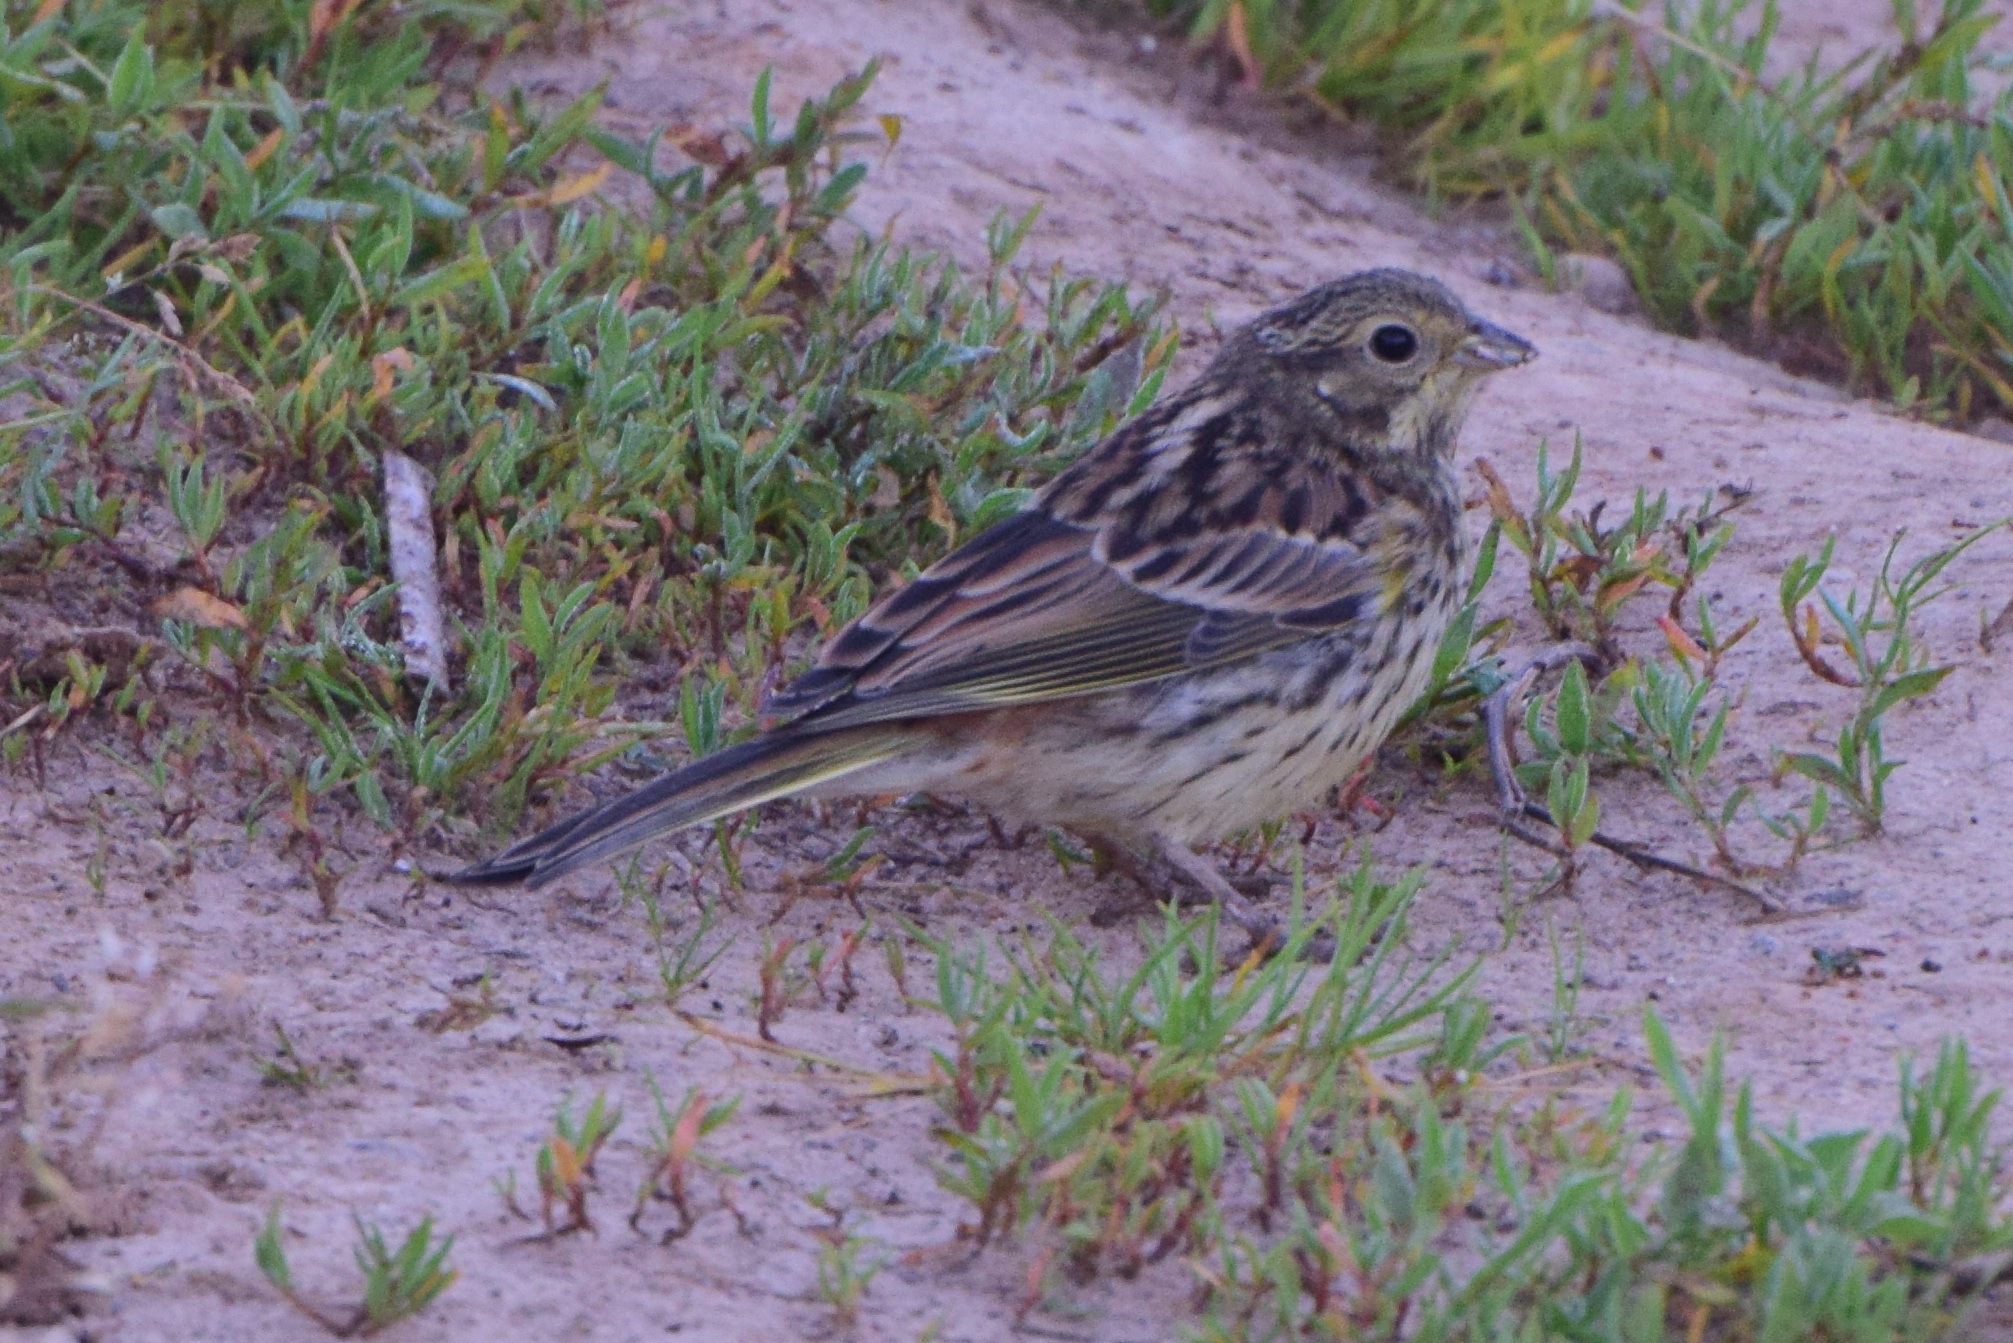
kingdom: Animalia
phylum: Chordata
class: Aves
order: Passeriformes
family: Emberizidae
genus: Emberiza
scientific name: Emberiza citrinella
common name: Yellowhammer
